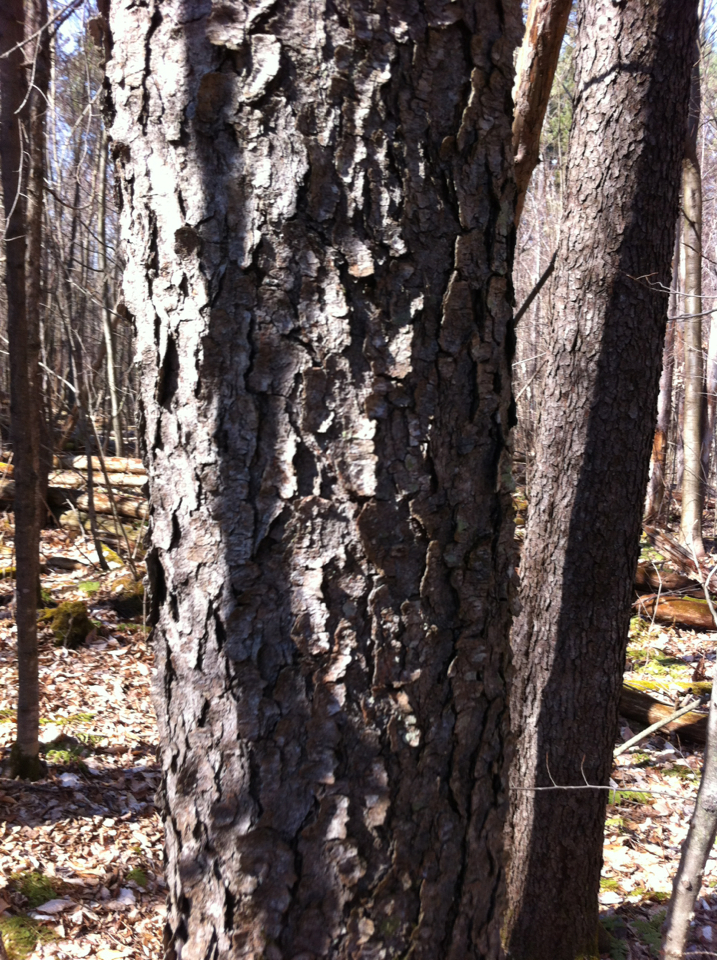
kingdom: Plantae
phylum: Tracheophyta
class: Magnoliopsida
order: Rosales
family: Rosaceae
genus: Prunus
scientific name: Prunus serotina
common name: Black cherry
